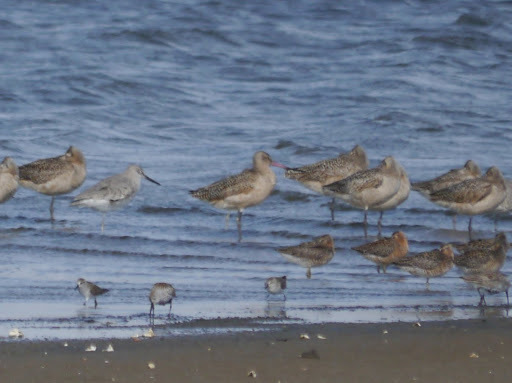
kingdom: Animalia
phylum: Chordata
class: Aves
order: Charadriiformes
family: Scolopacidae
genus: Limosa
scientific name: Limosa fedoa
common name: Marbled godwit
